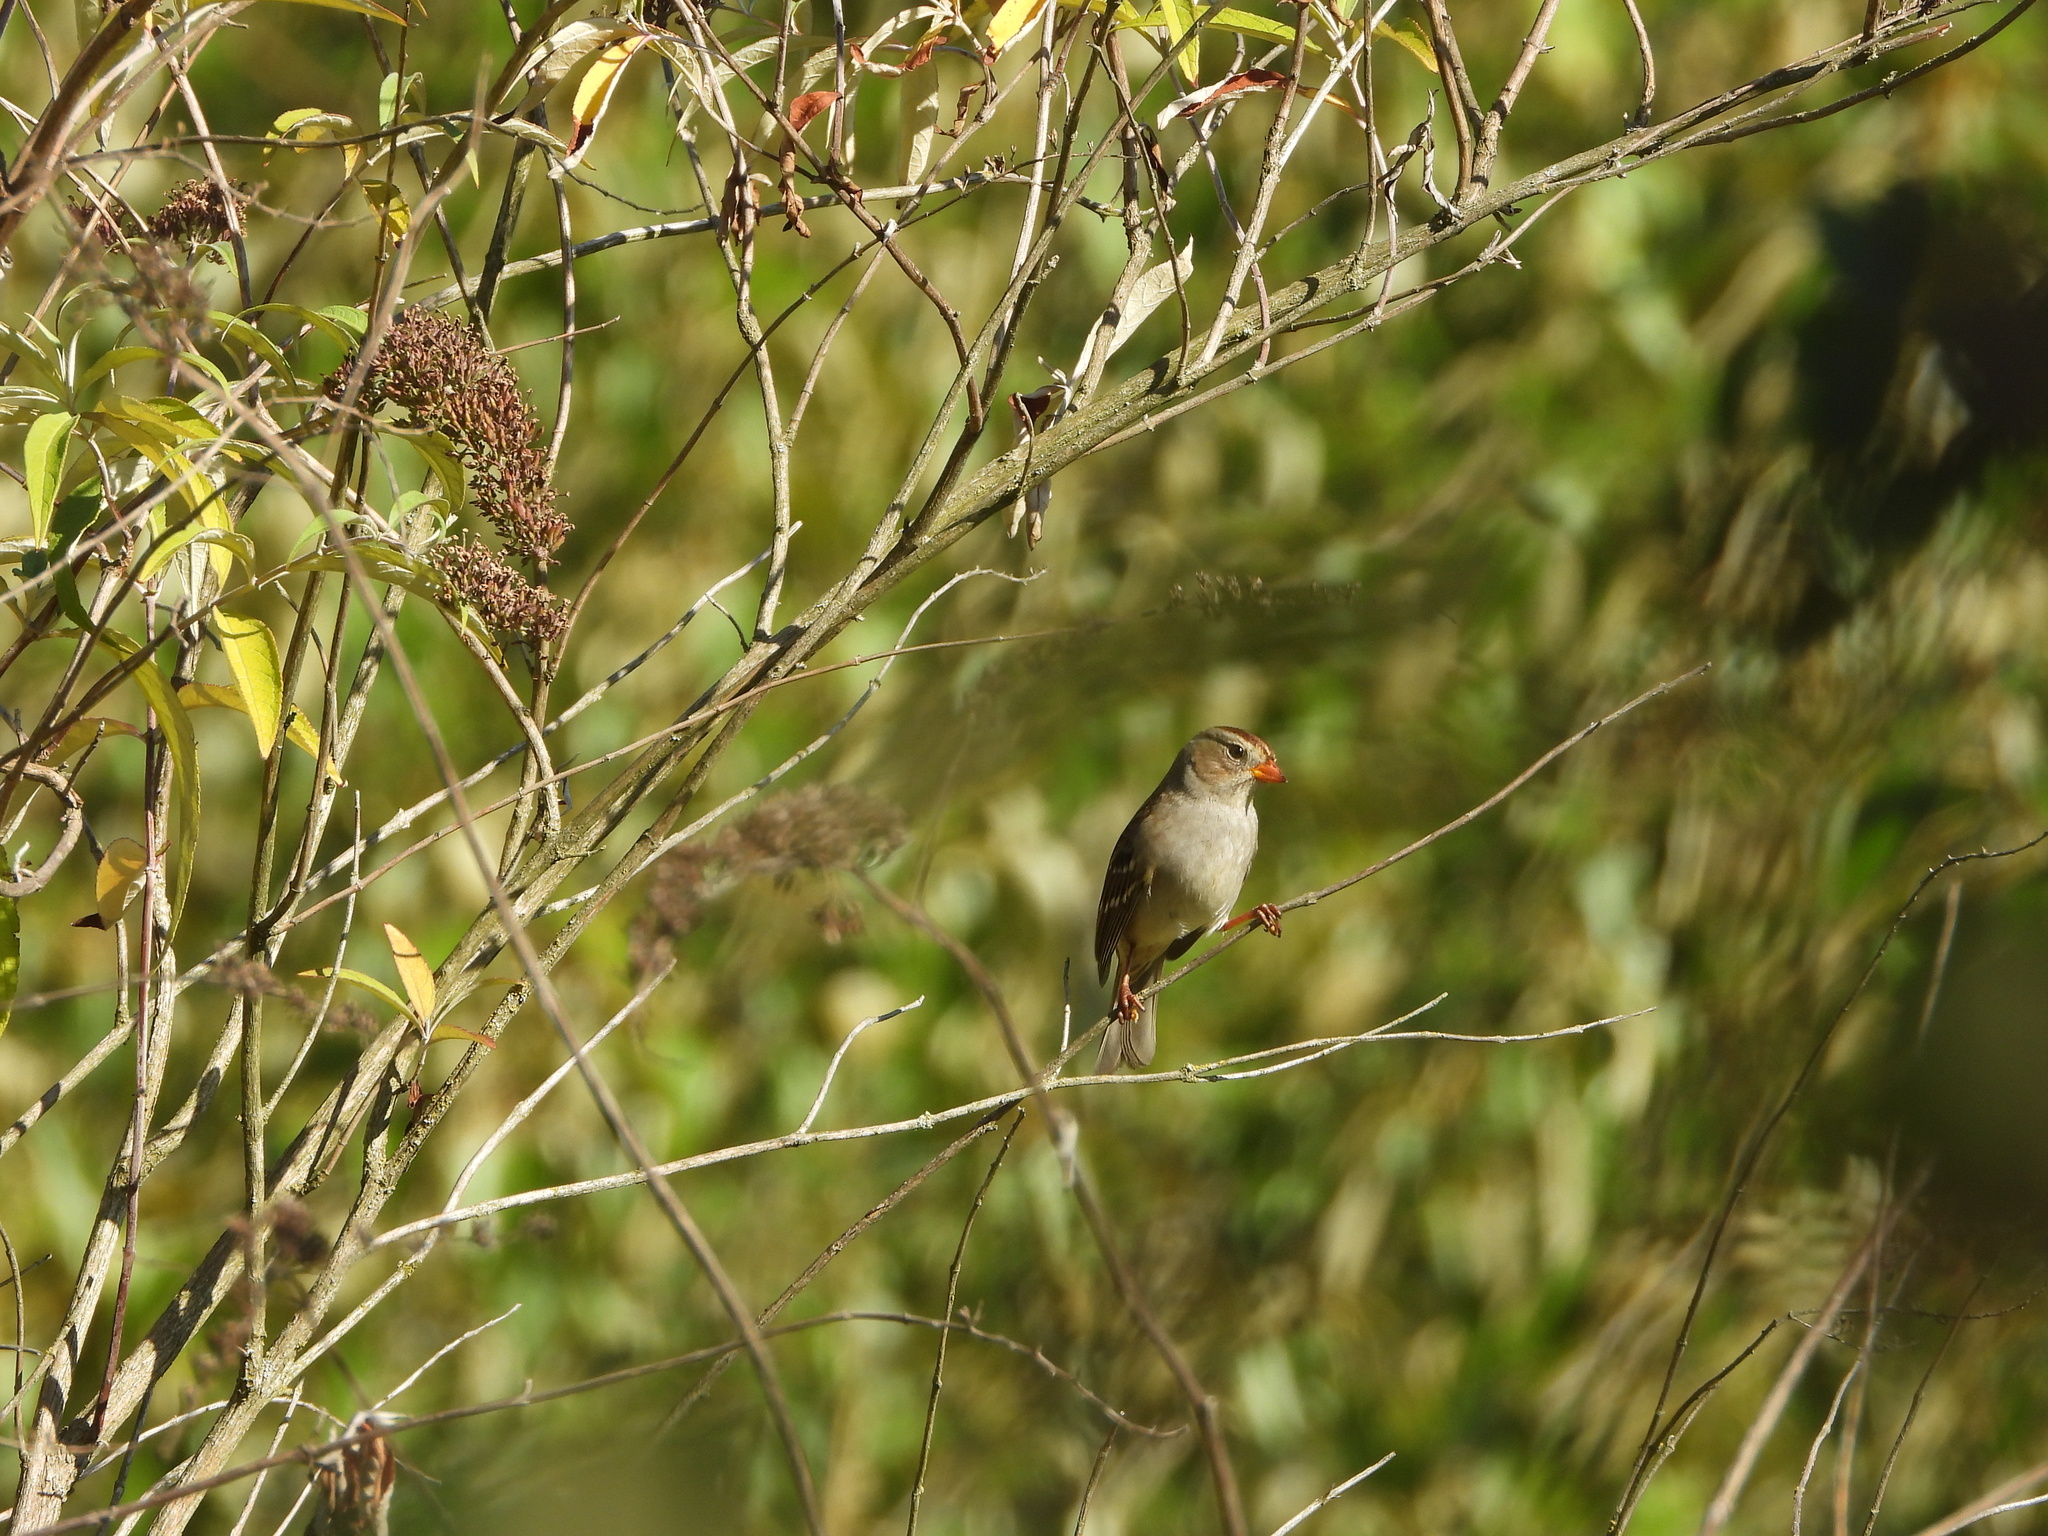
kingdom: Animalia
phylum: Chordata
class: Aves
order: Passeriformes
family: Passerellidae
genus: Zonotrichia
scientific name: Zonotrichia leucophrys
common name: White-crowned sparrow
